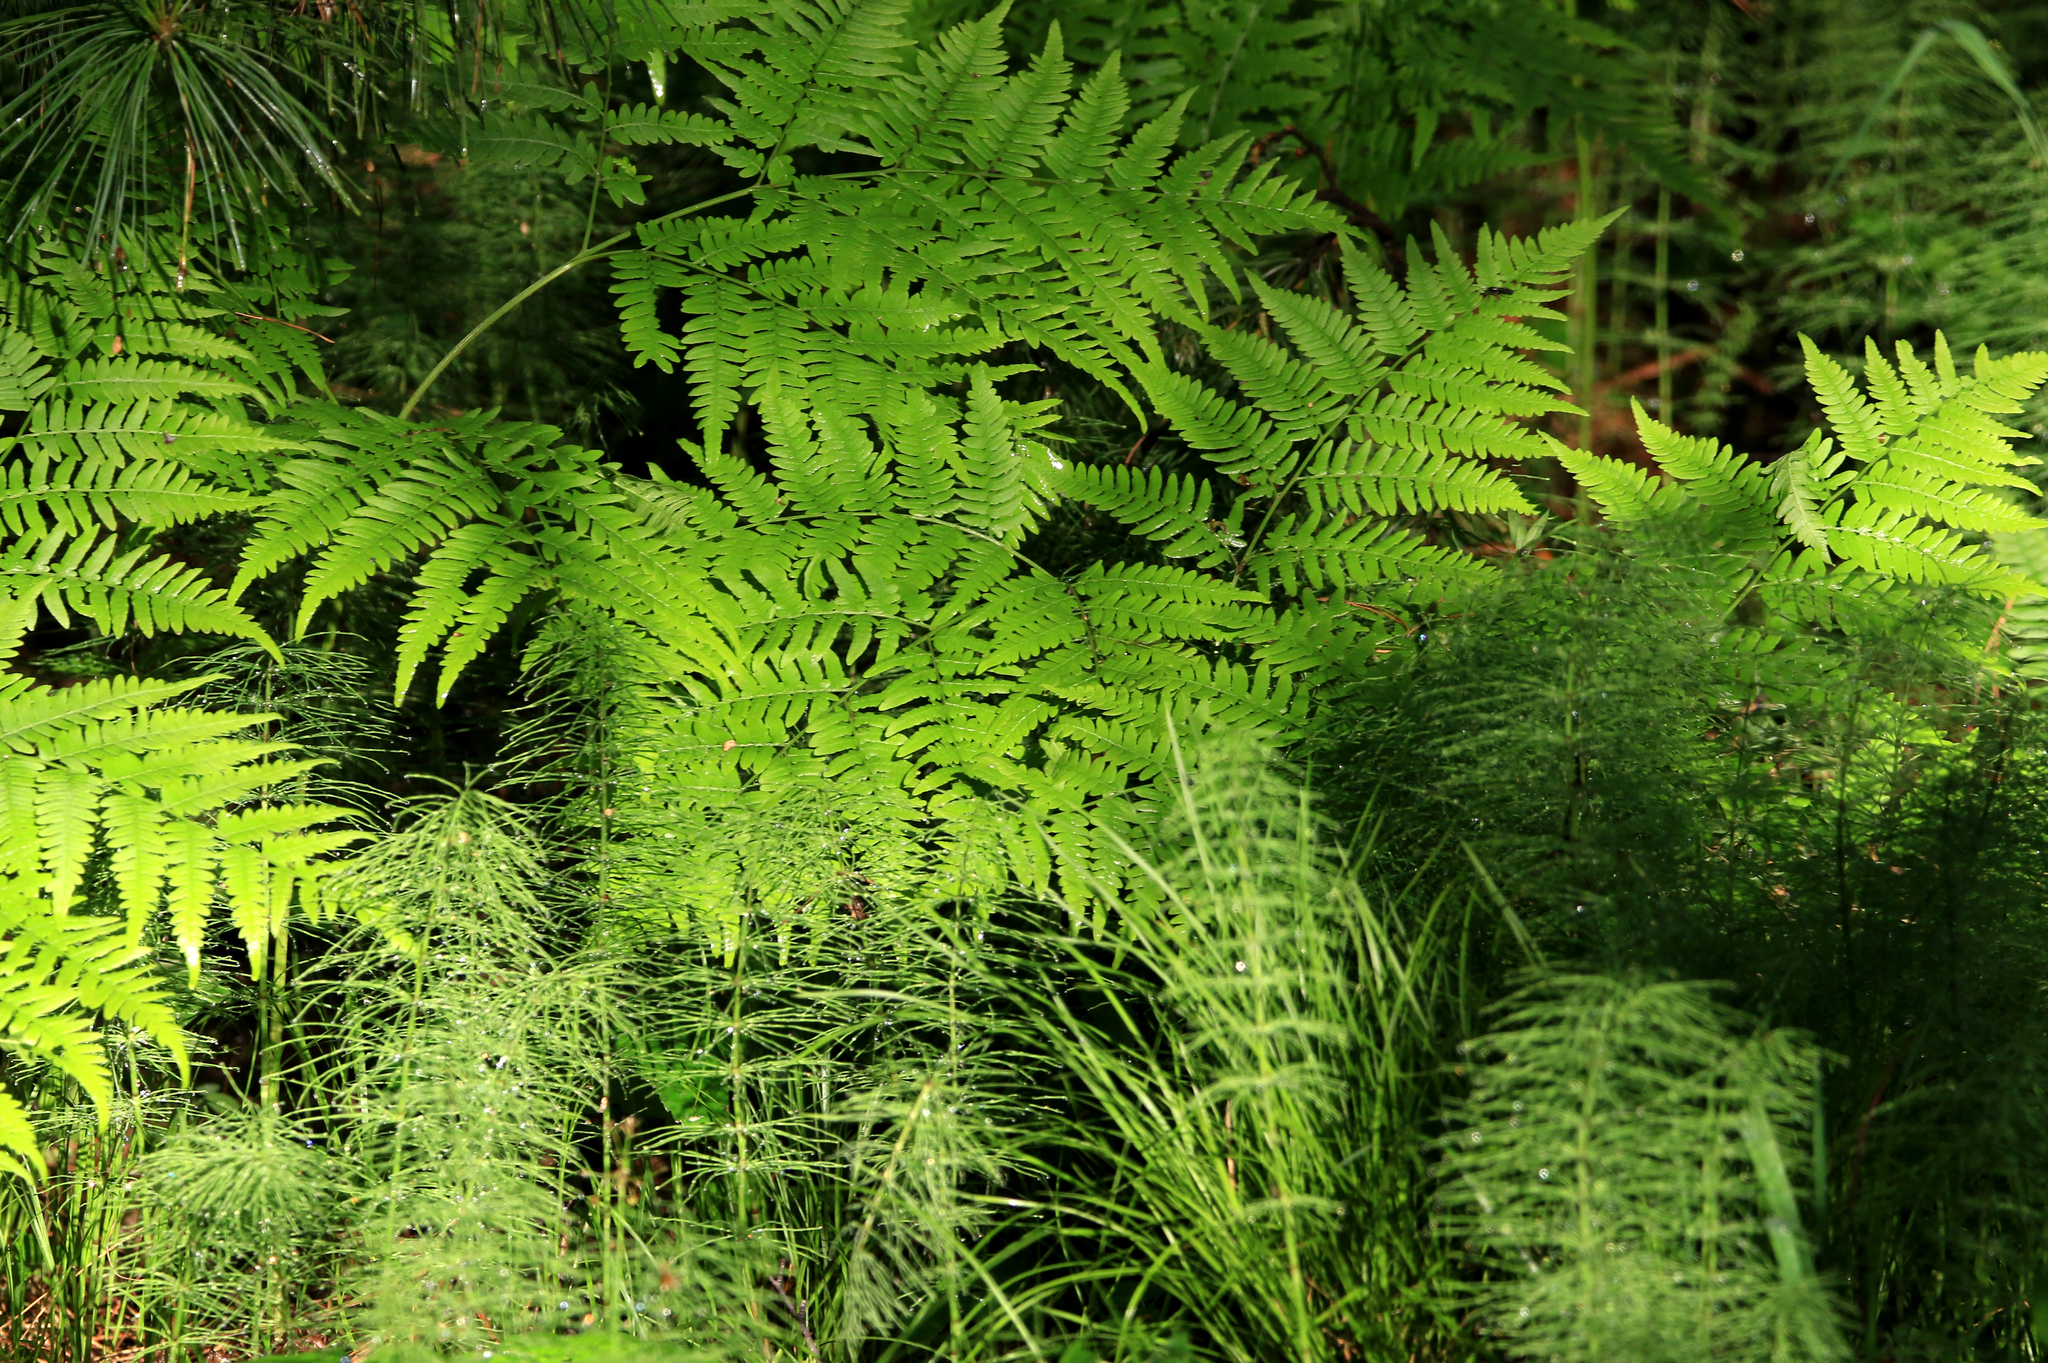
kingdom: Plantae
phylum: Tracheophyta
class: Polypodiopsida
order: Polypodiales
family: Dennstaedtiaceae
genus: Pteridium
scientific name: Pteridium aquilinum
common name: Bracken
